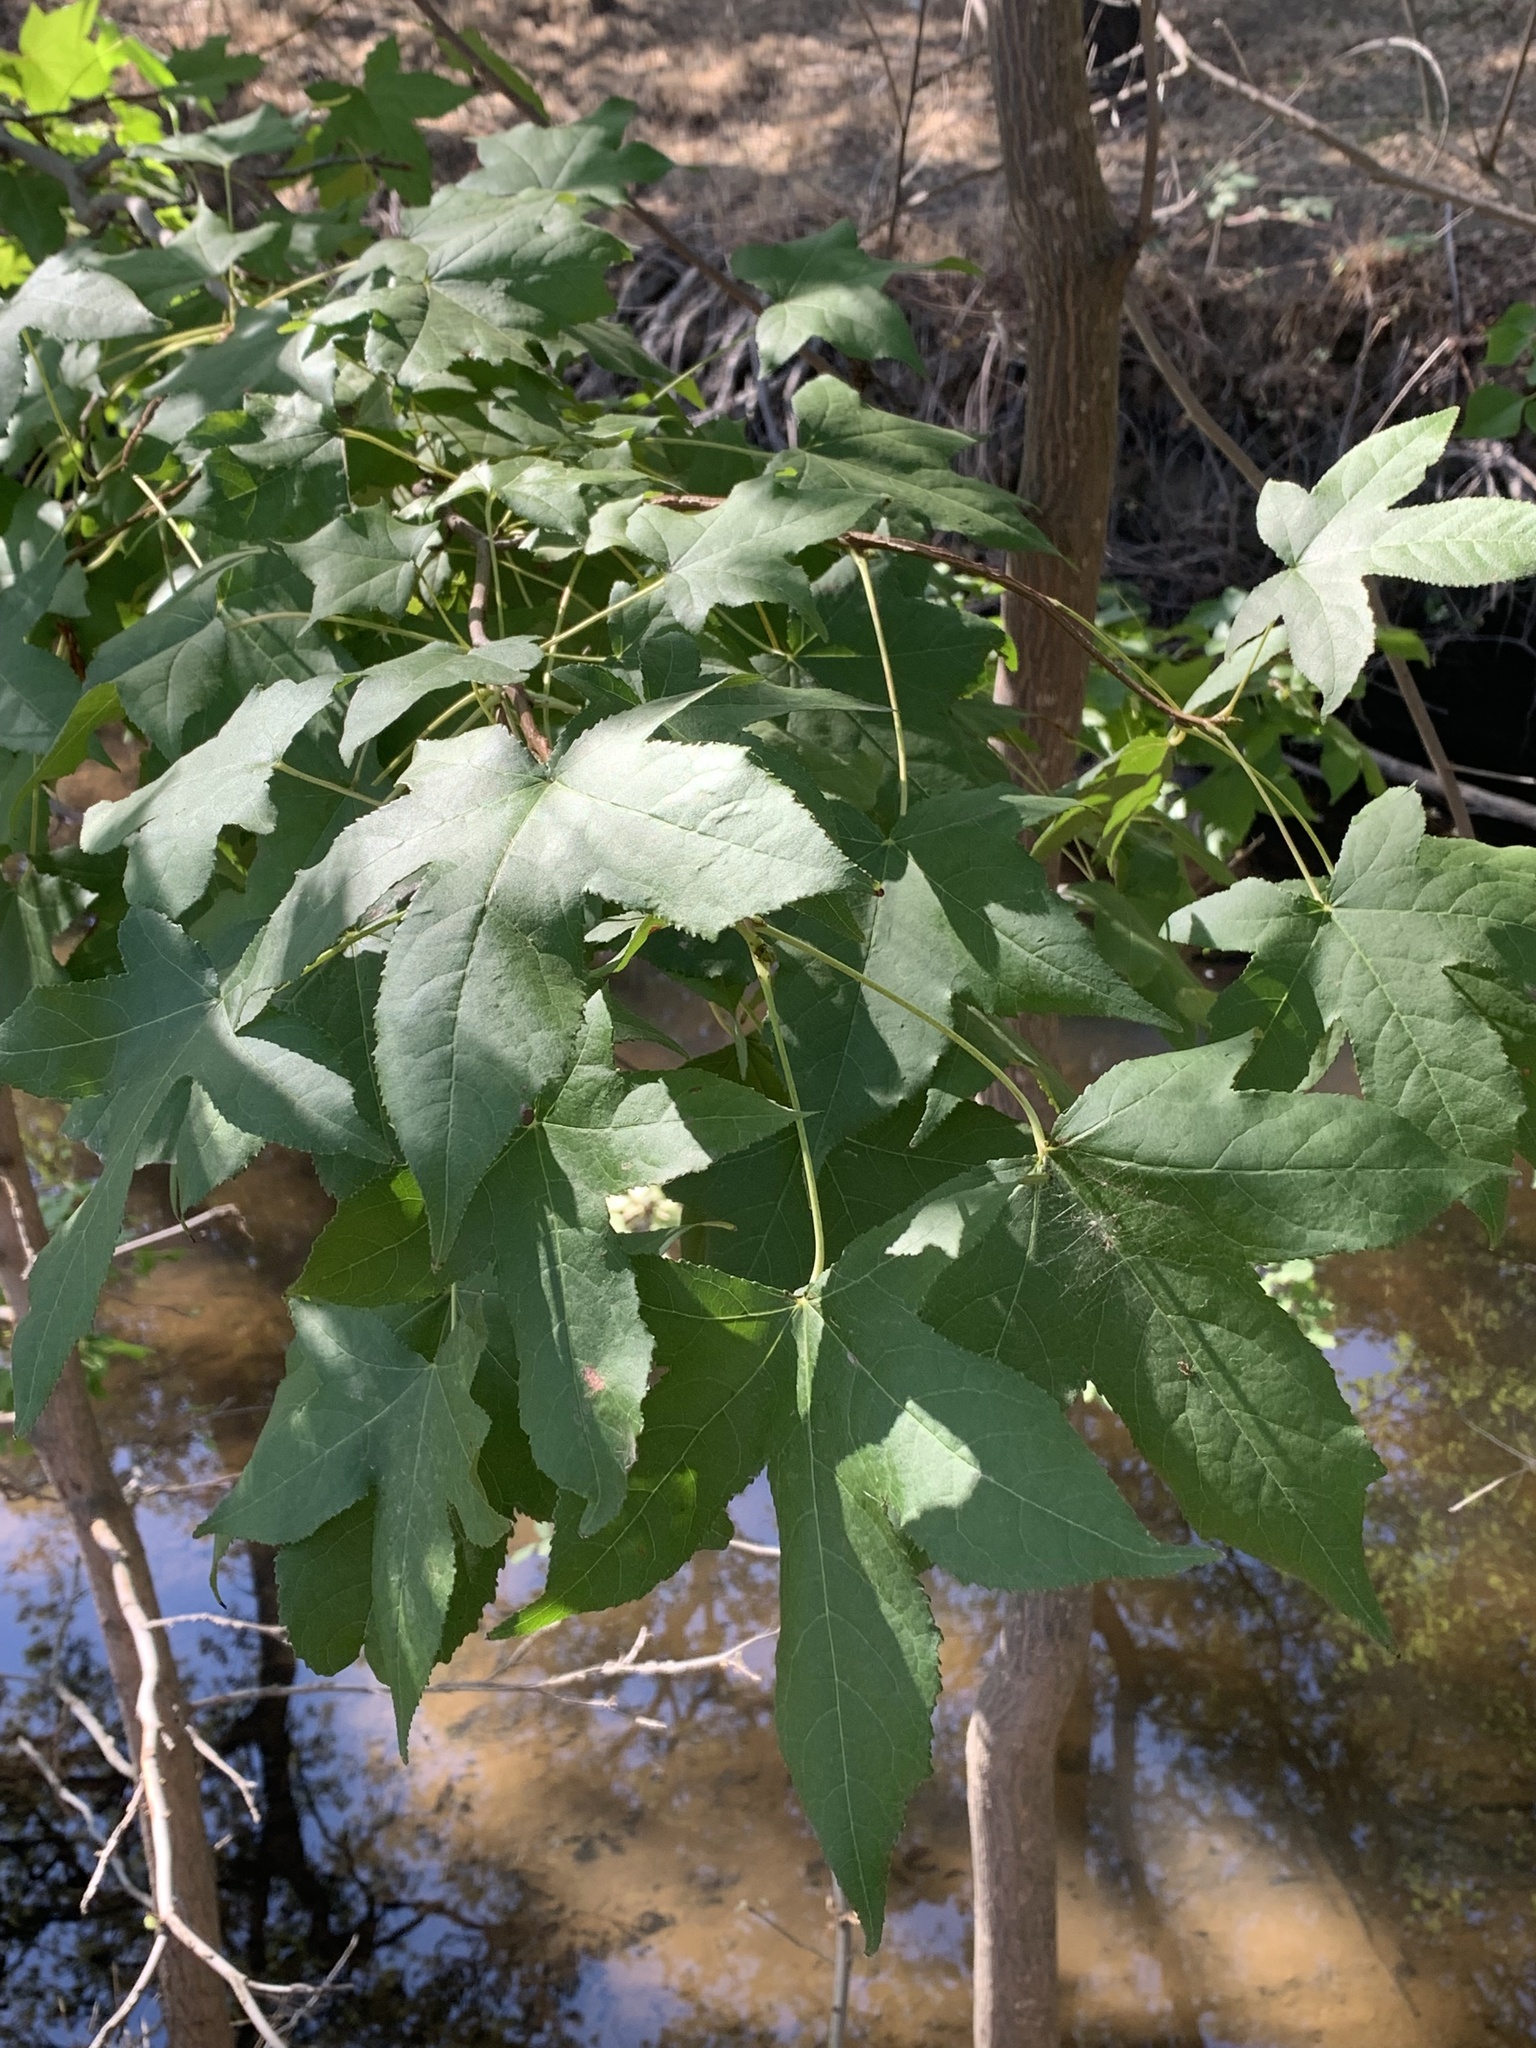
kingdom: Plantae
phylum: Tracheophyta
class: Magnoliopsida
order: Saxifragales
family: Altingiaceae
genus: Liquidambar
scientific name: Liquidambar styraciflua
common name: Sweet gum
